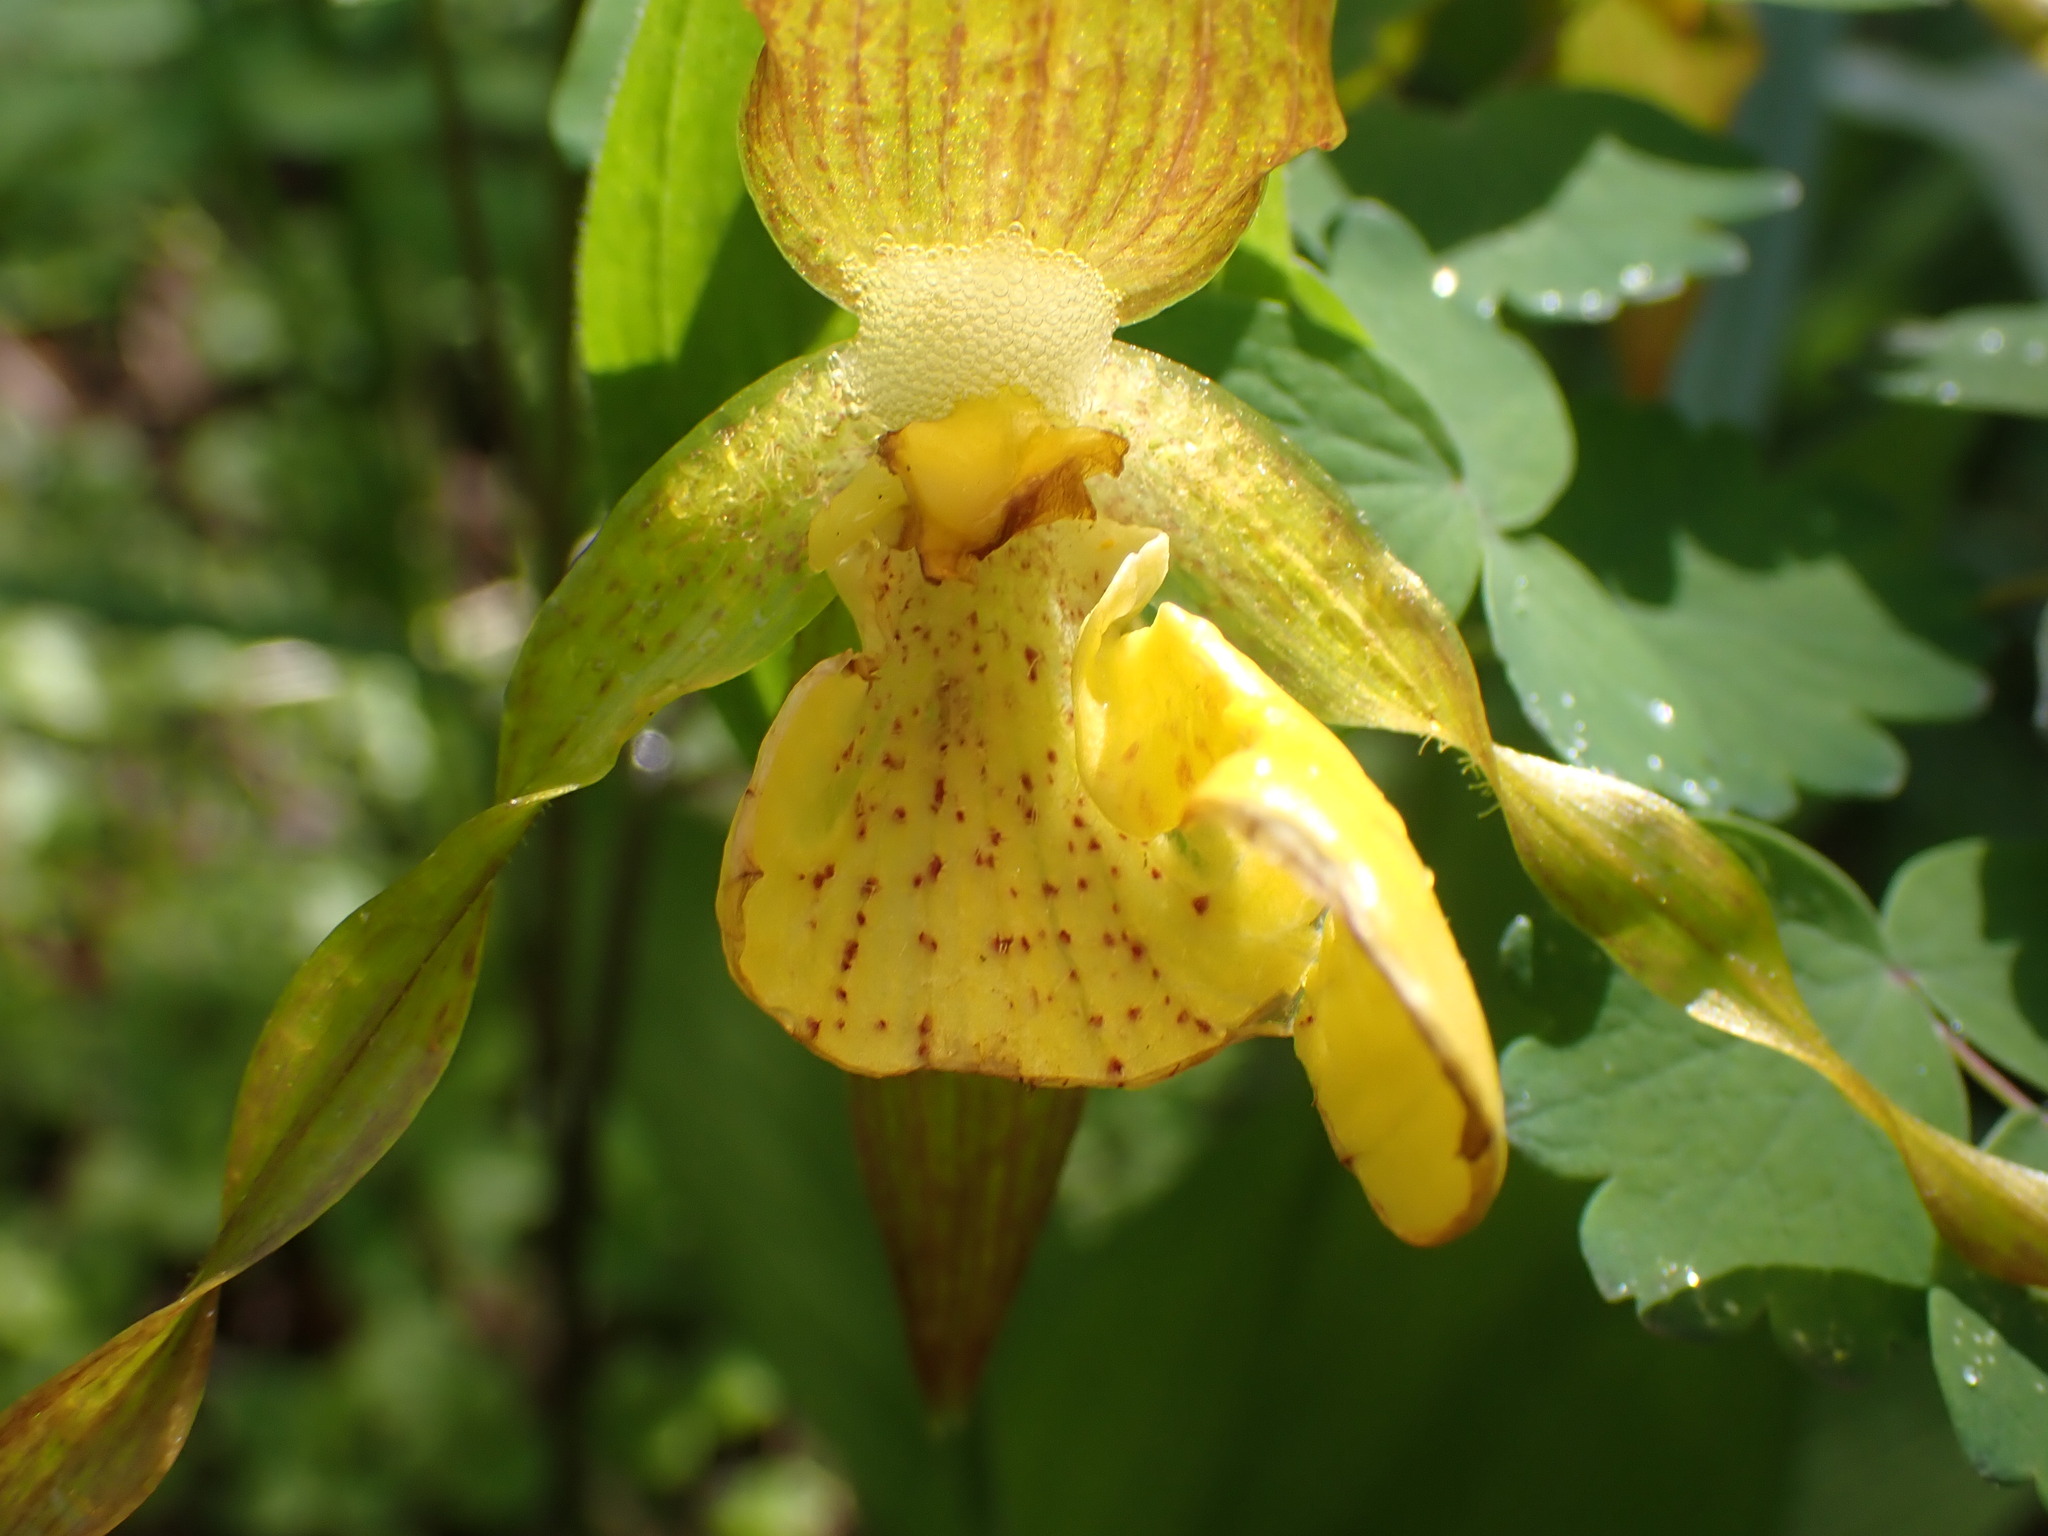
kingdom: Plantae
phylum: Tracheophyta
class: Liliopsida
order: Asparagales
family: Orchidaceae
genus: Cypripedium
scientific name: Cypripedium parviflorum
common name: American yellow lady's-slipper
